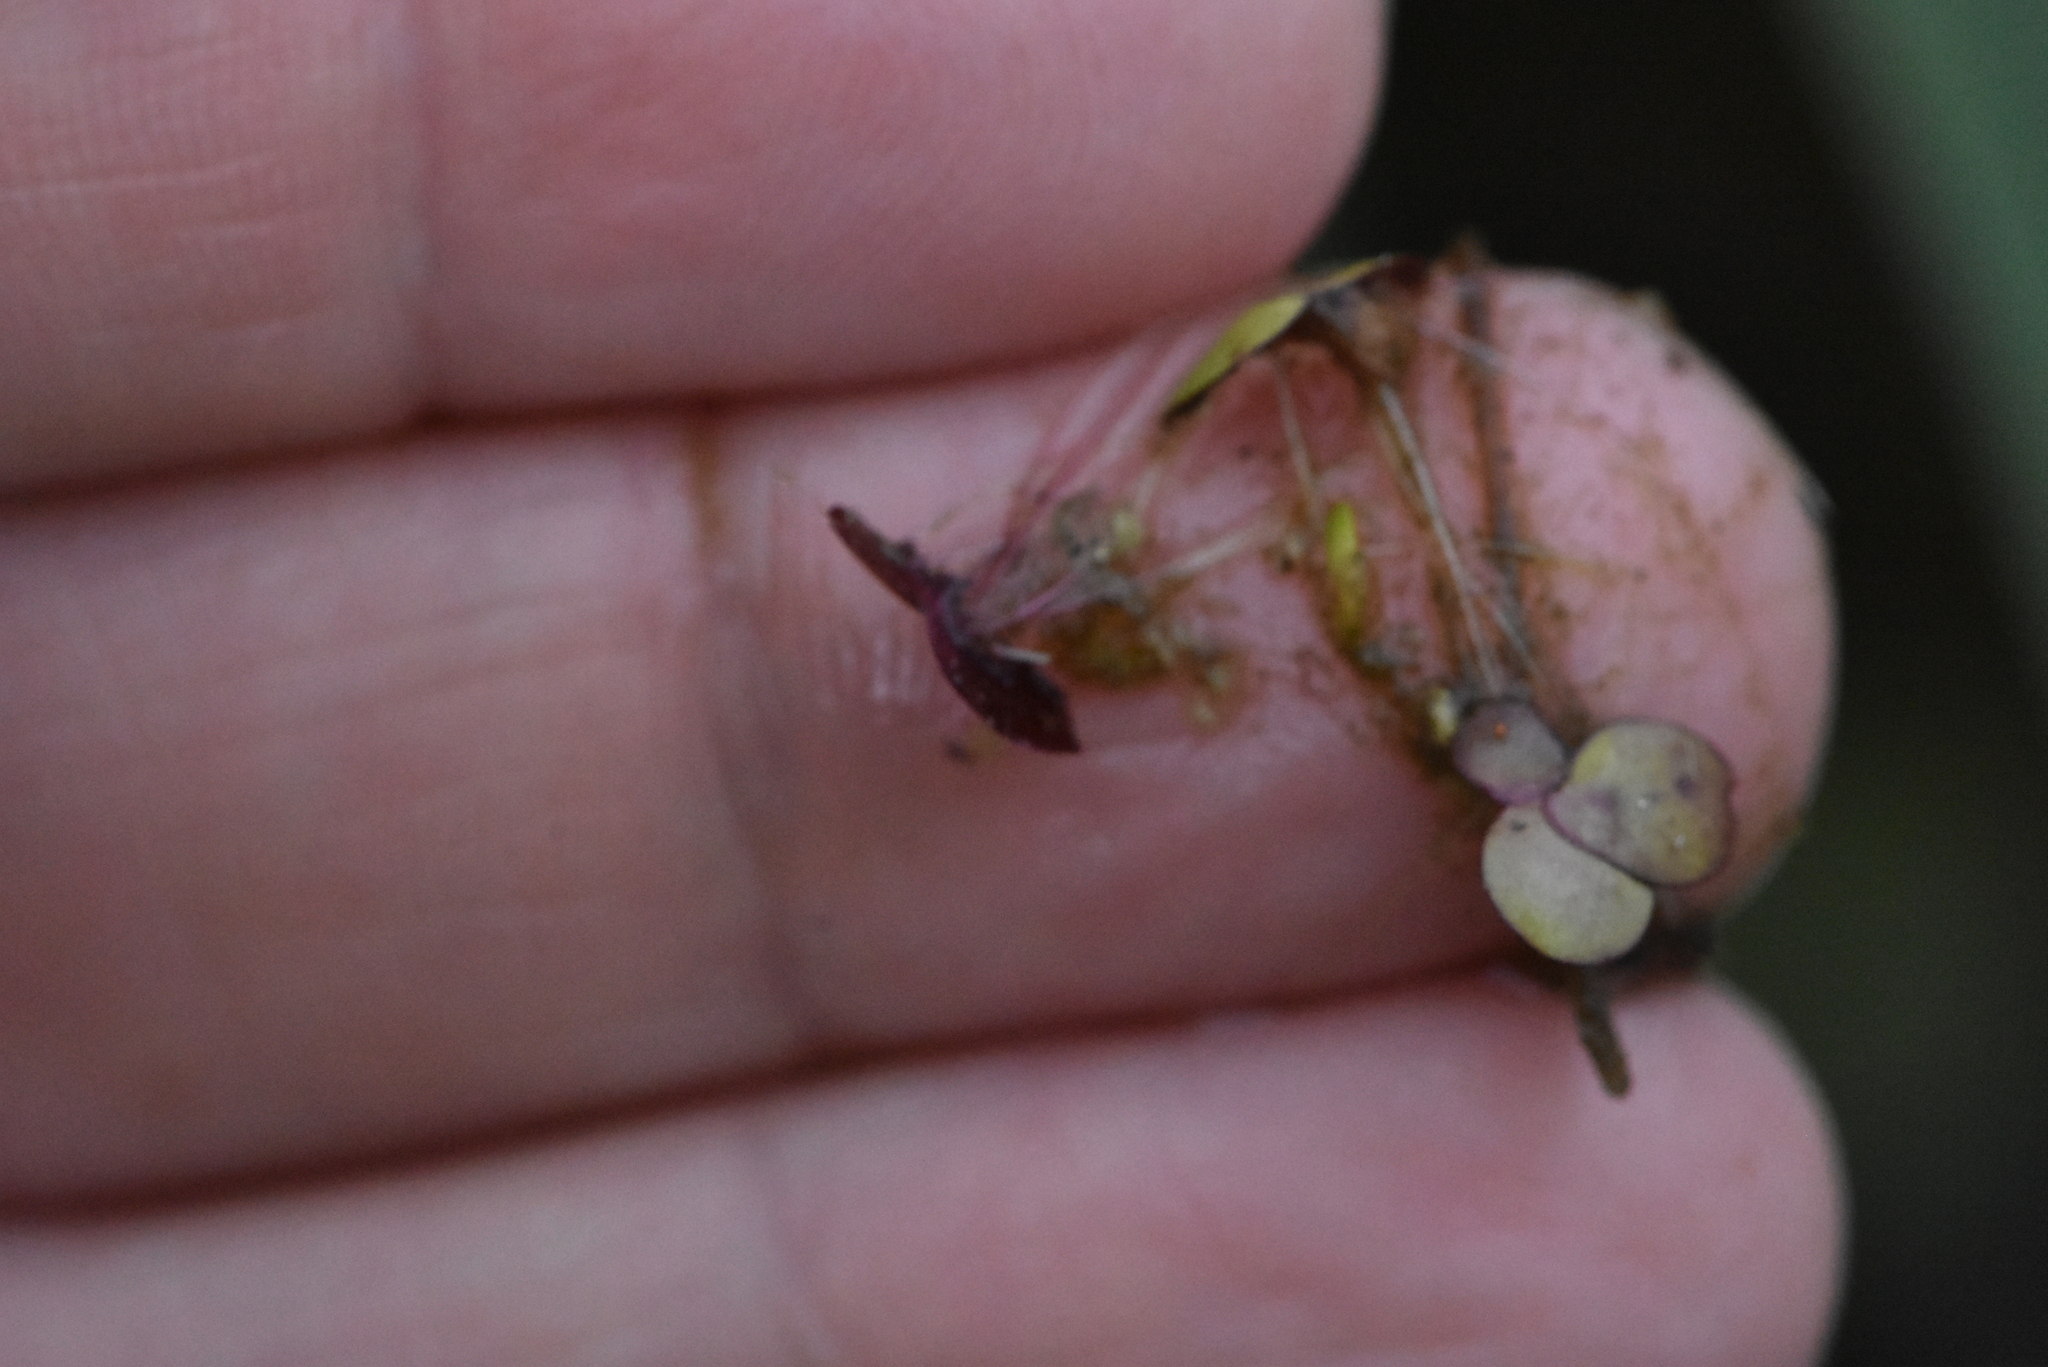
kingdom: Plantae
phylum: Tracheophyta
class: Liliopsida
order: Alismatales
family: Araceae
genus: Spirodela
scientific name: Spirodela polyrhiza
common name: Great duckweed
